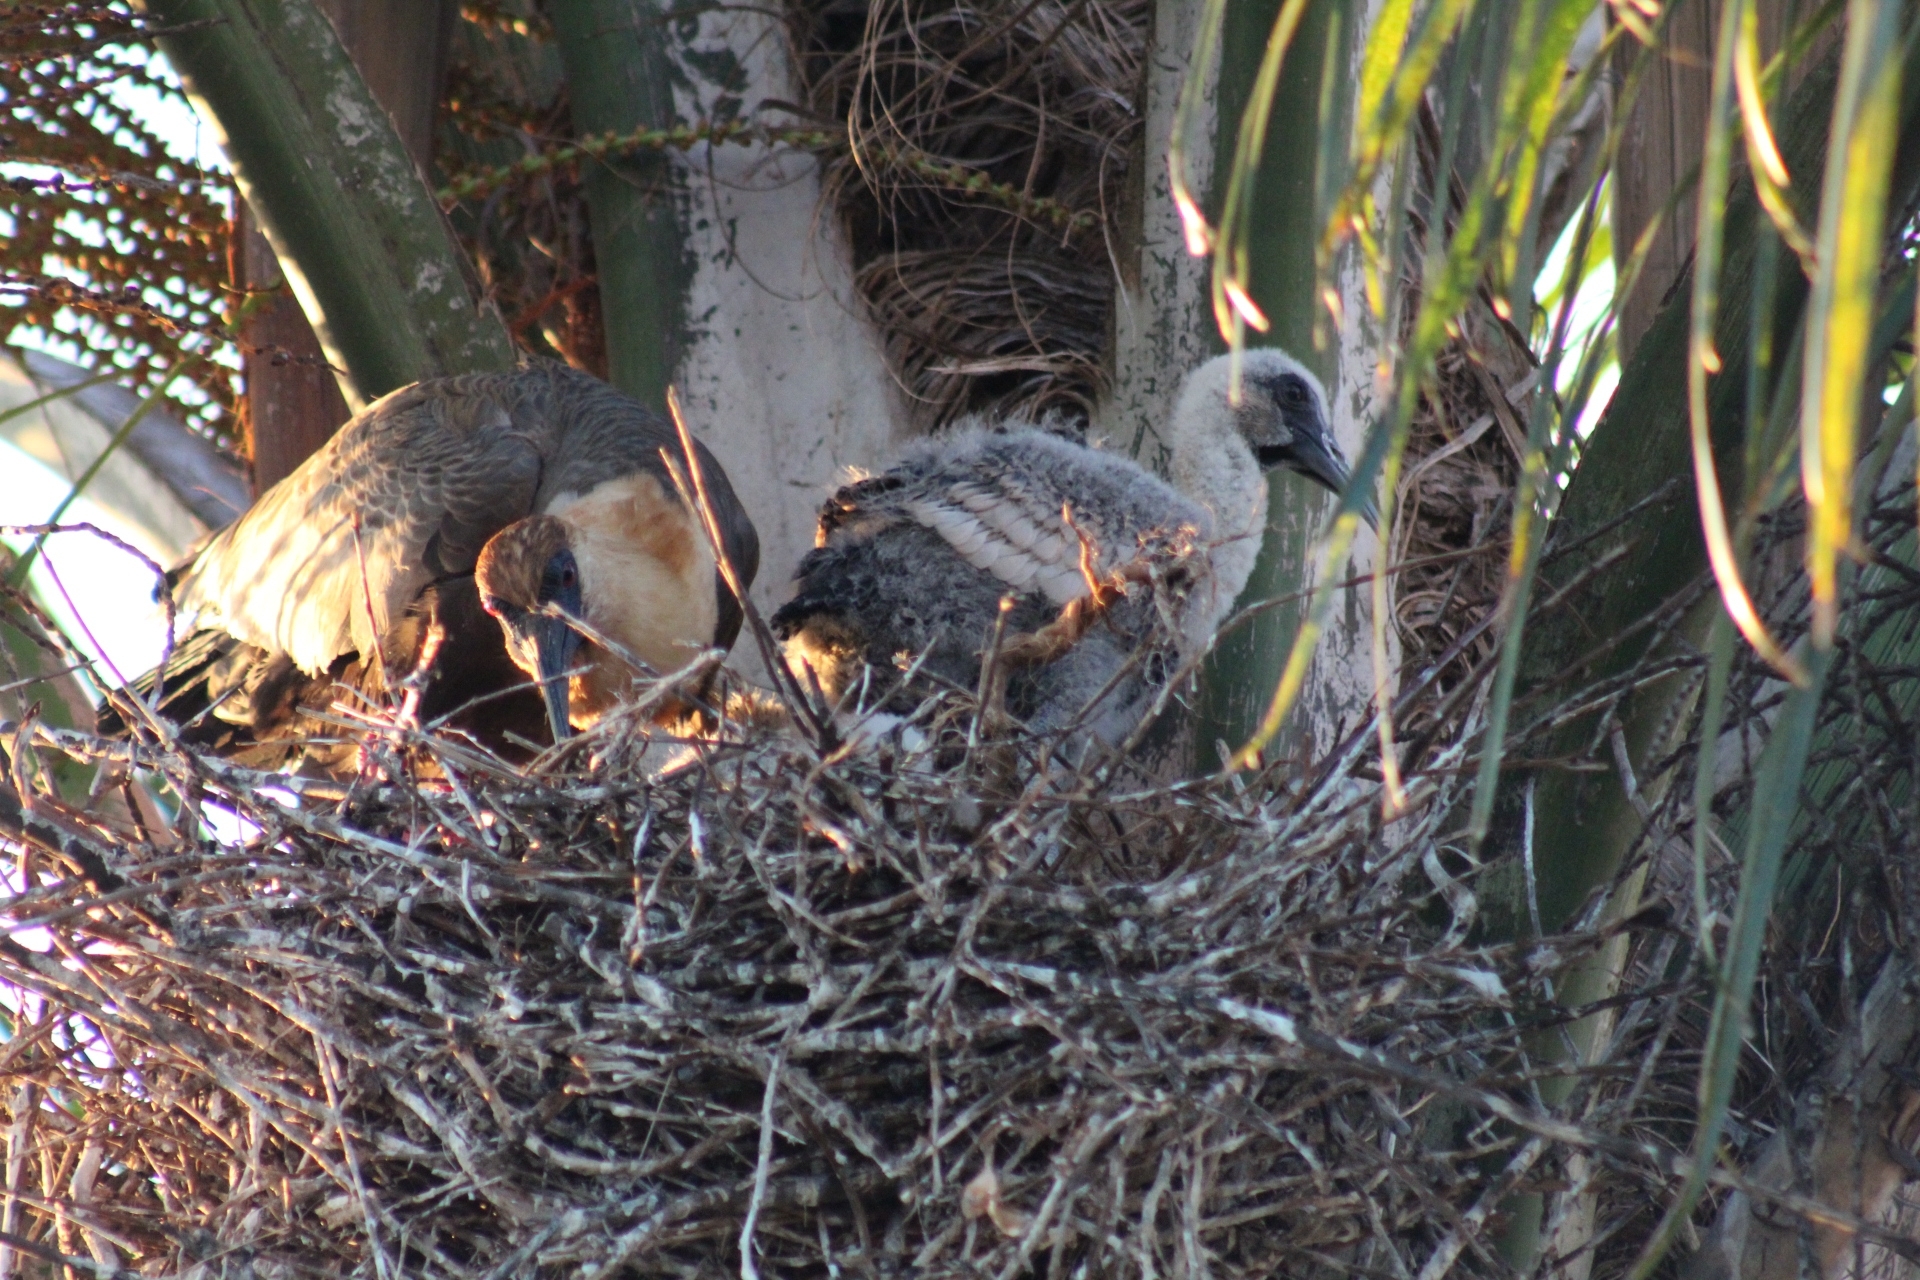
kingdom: Animalia
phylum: Chordata
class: Aves
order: Pelecaniformes
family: Threskiornithidae
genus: Theristicus
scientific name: Theristicus caudatus
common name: Buff-necked ibis
